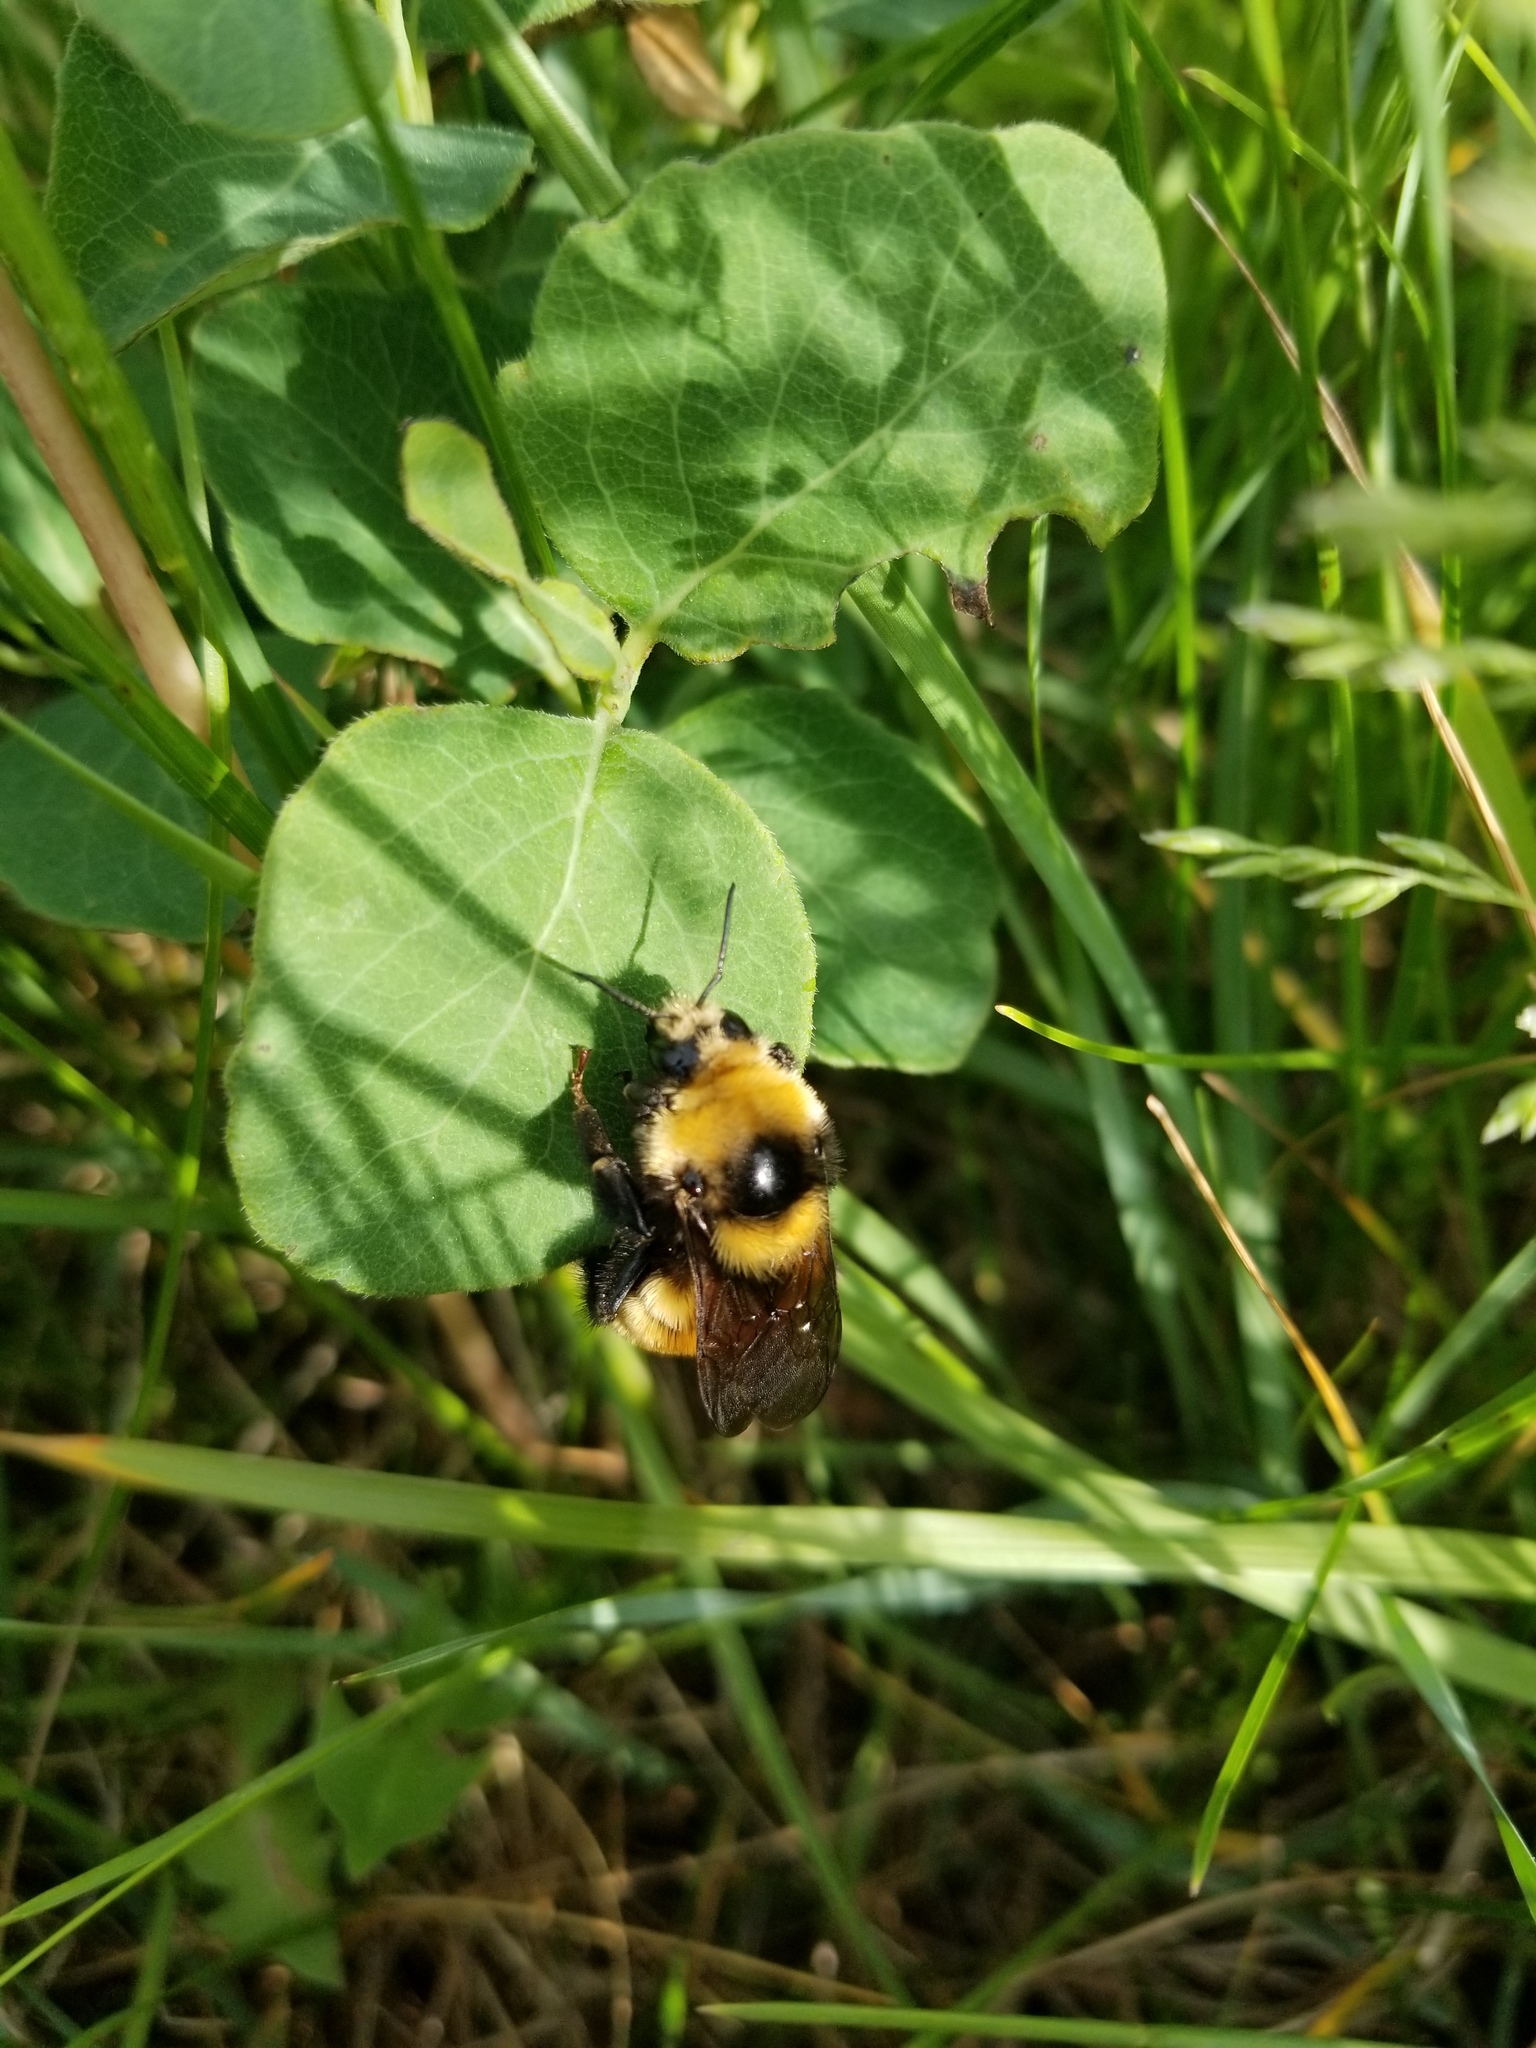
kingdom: Animalia
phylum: Arthropoda
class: Insecta
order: Hymenoptera
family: Apidae
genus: Bombus
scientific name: Bombus borealis
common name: Northern amber bumble bee
